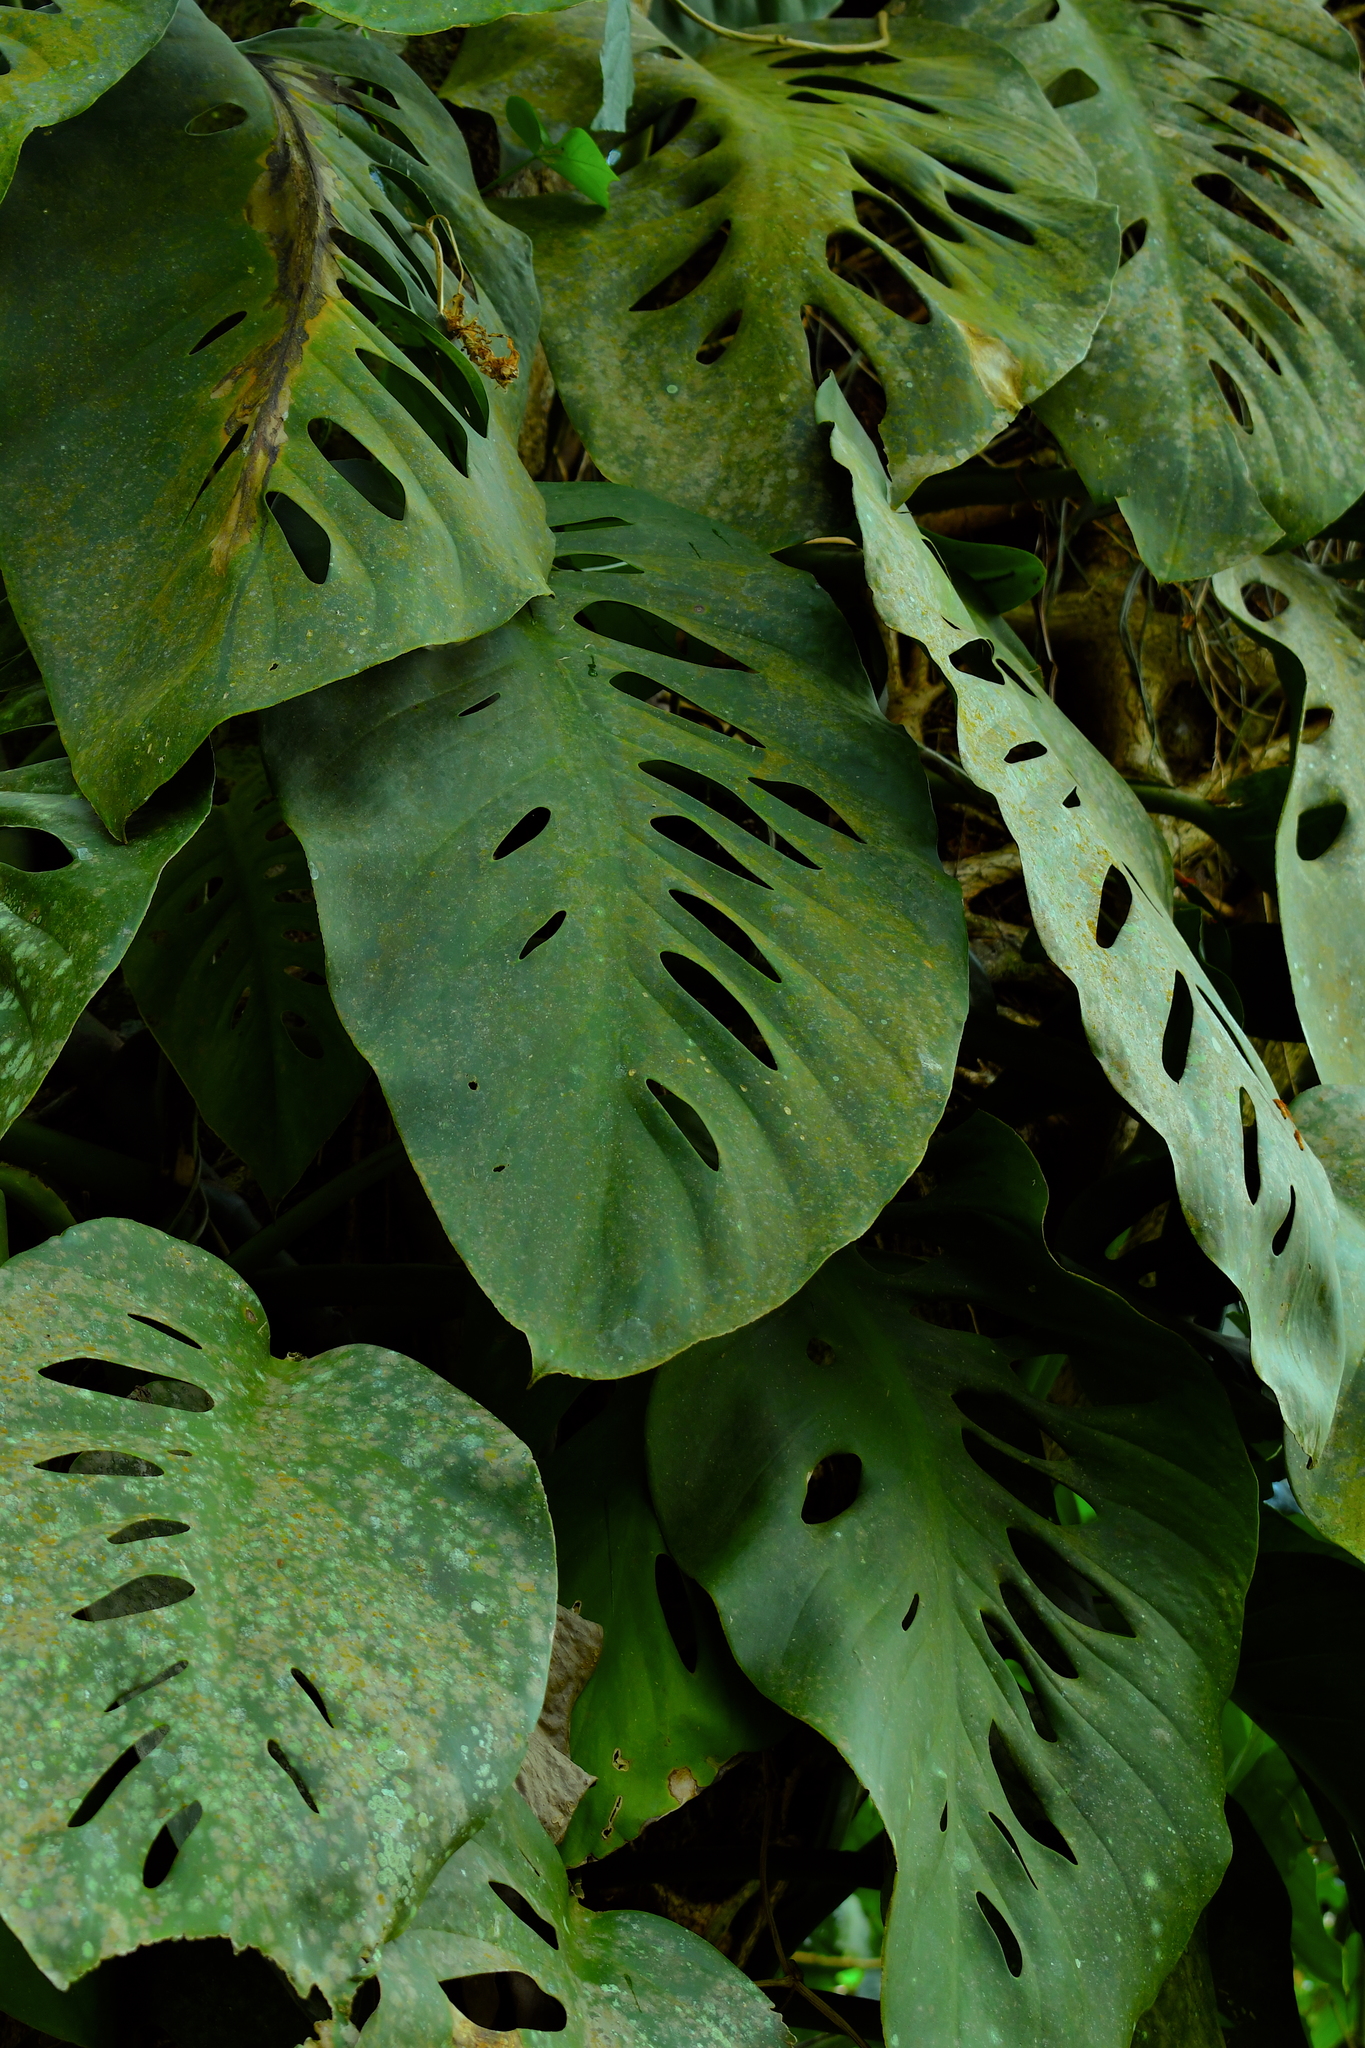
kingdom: Plantae
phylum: Tracheophyta
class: Liliopsida
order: Alismatales
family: Araceae
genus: Monstera
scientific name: Monstera acuminata
